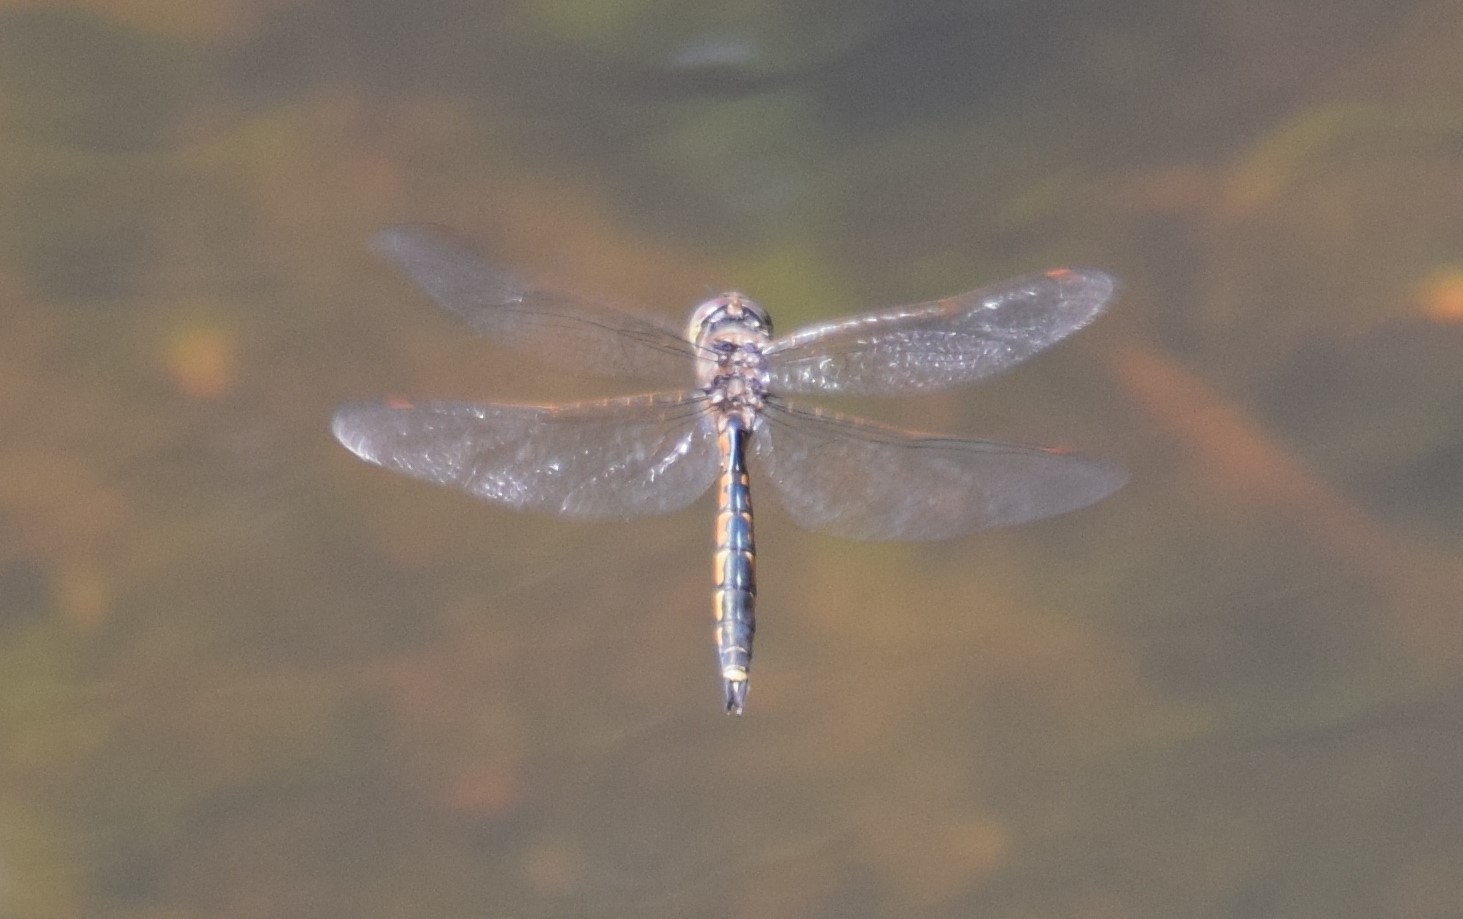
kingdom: Animalia
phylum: Arthropoda
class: Insecta
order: Odonata
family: Corduliidae
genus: Hemicordulia
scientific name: Hemicordulia tau
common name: Tau emerald
